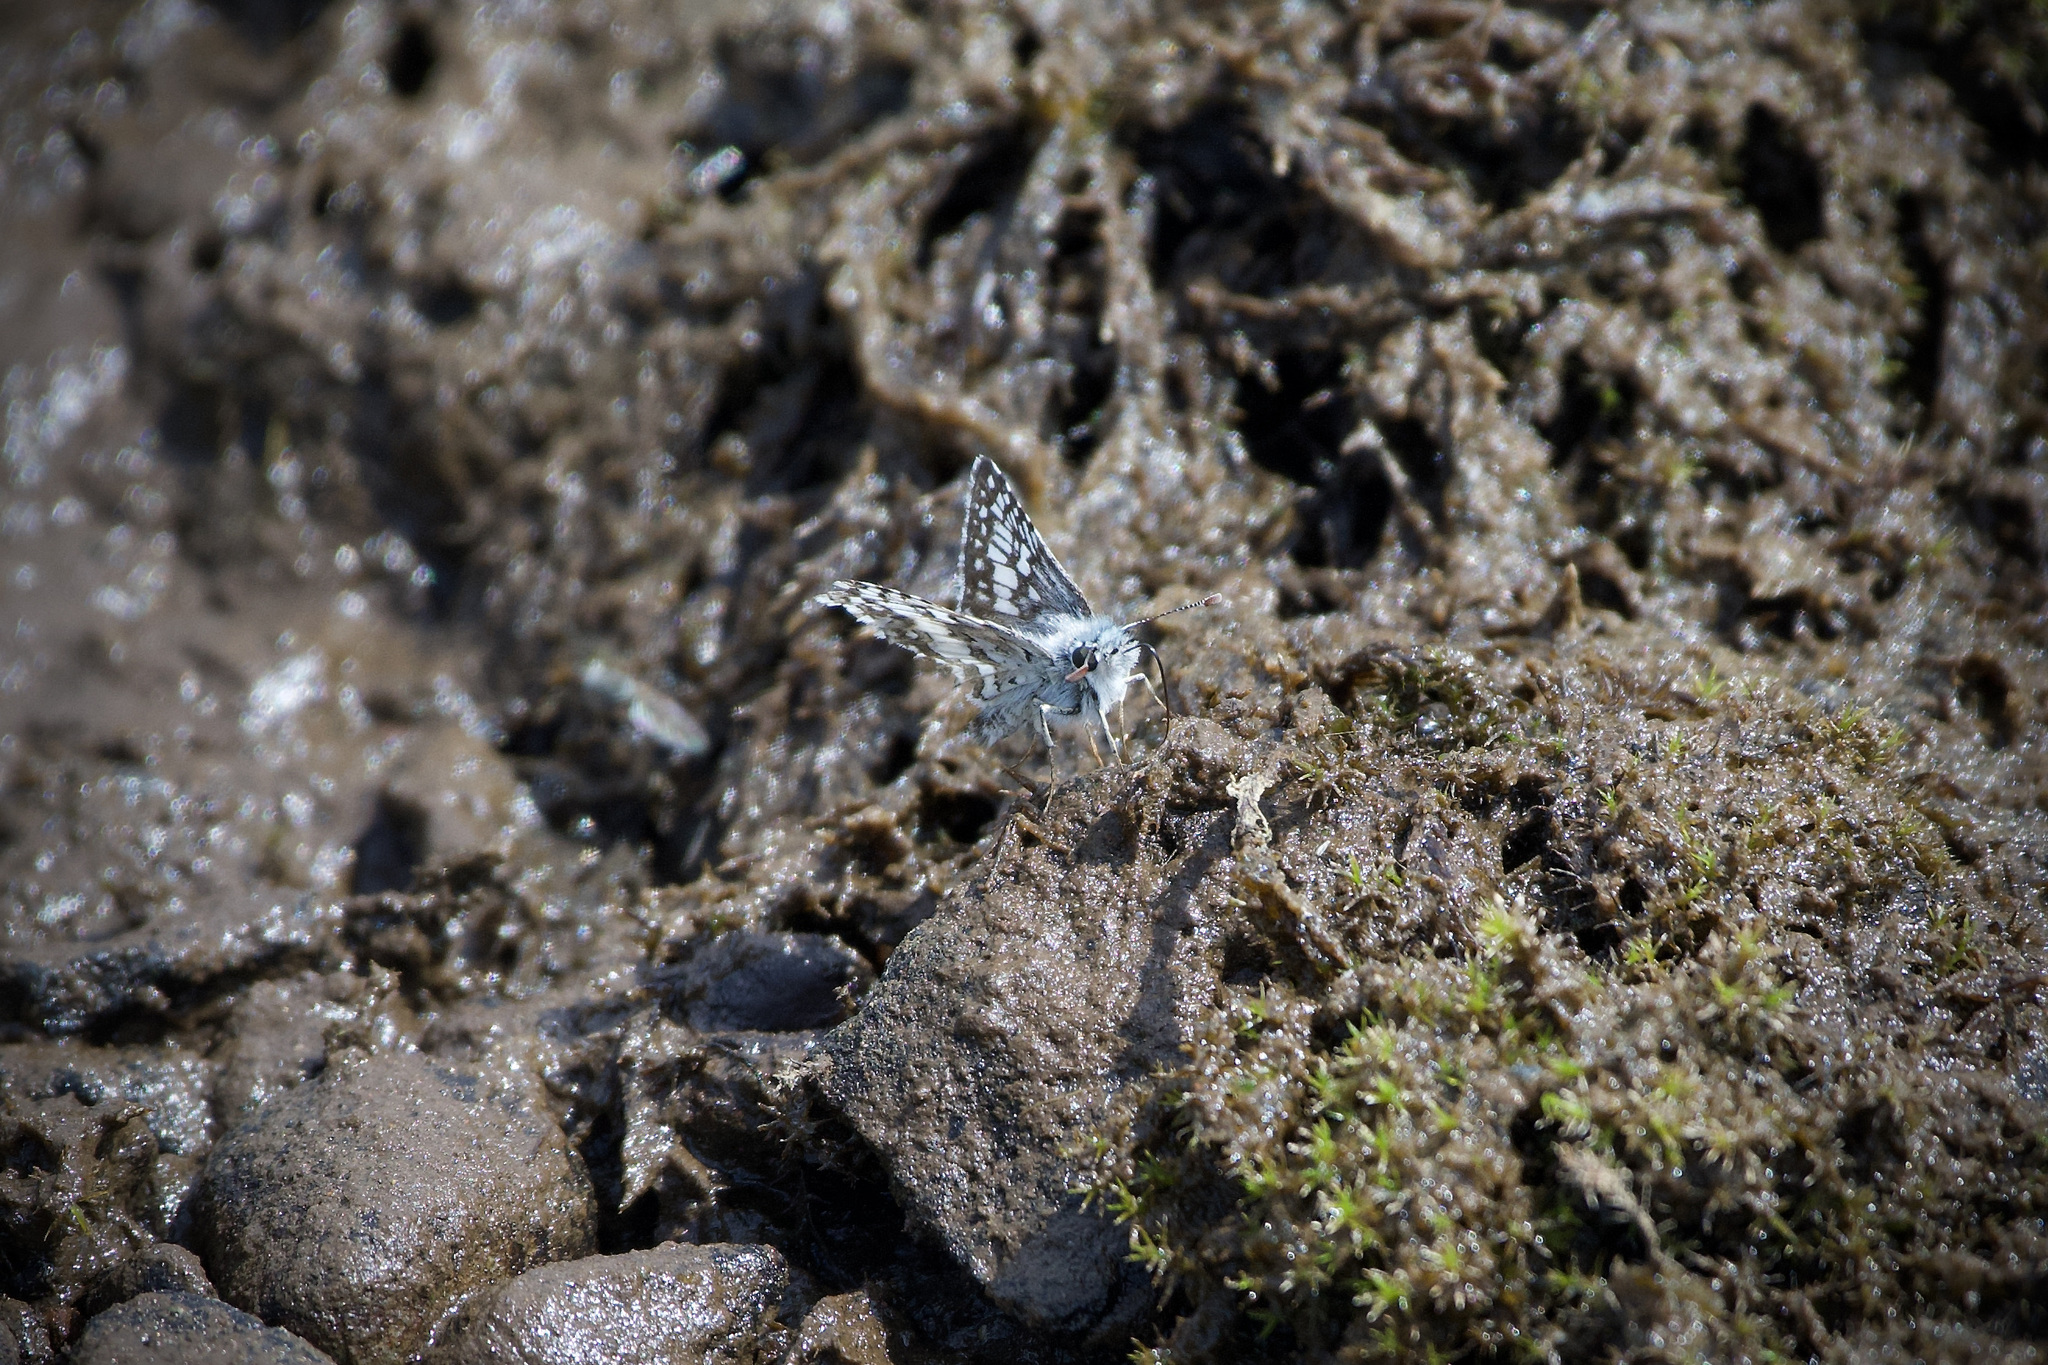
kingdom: Animalia
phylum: Arthropoda
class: Insecta
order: Lepidoptera
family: Hesperiidae
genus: Burnsius
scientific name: Burnsius communis
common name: Common checkered-skipper
